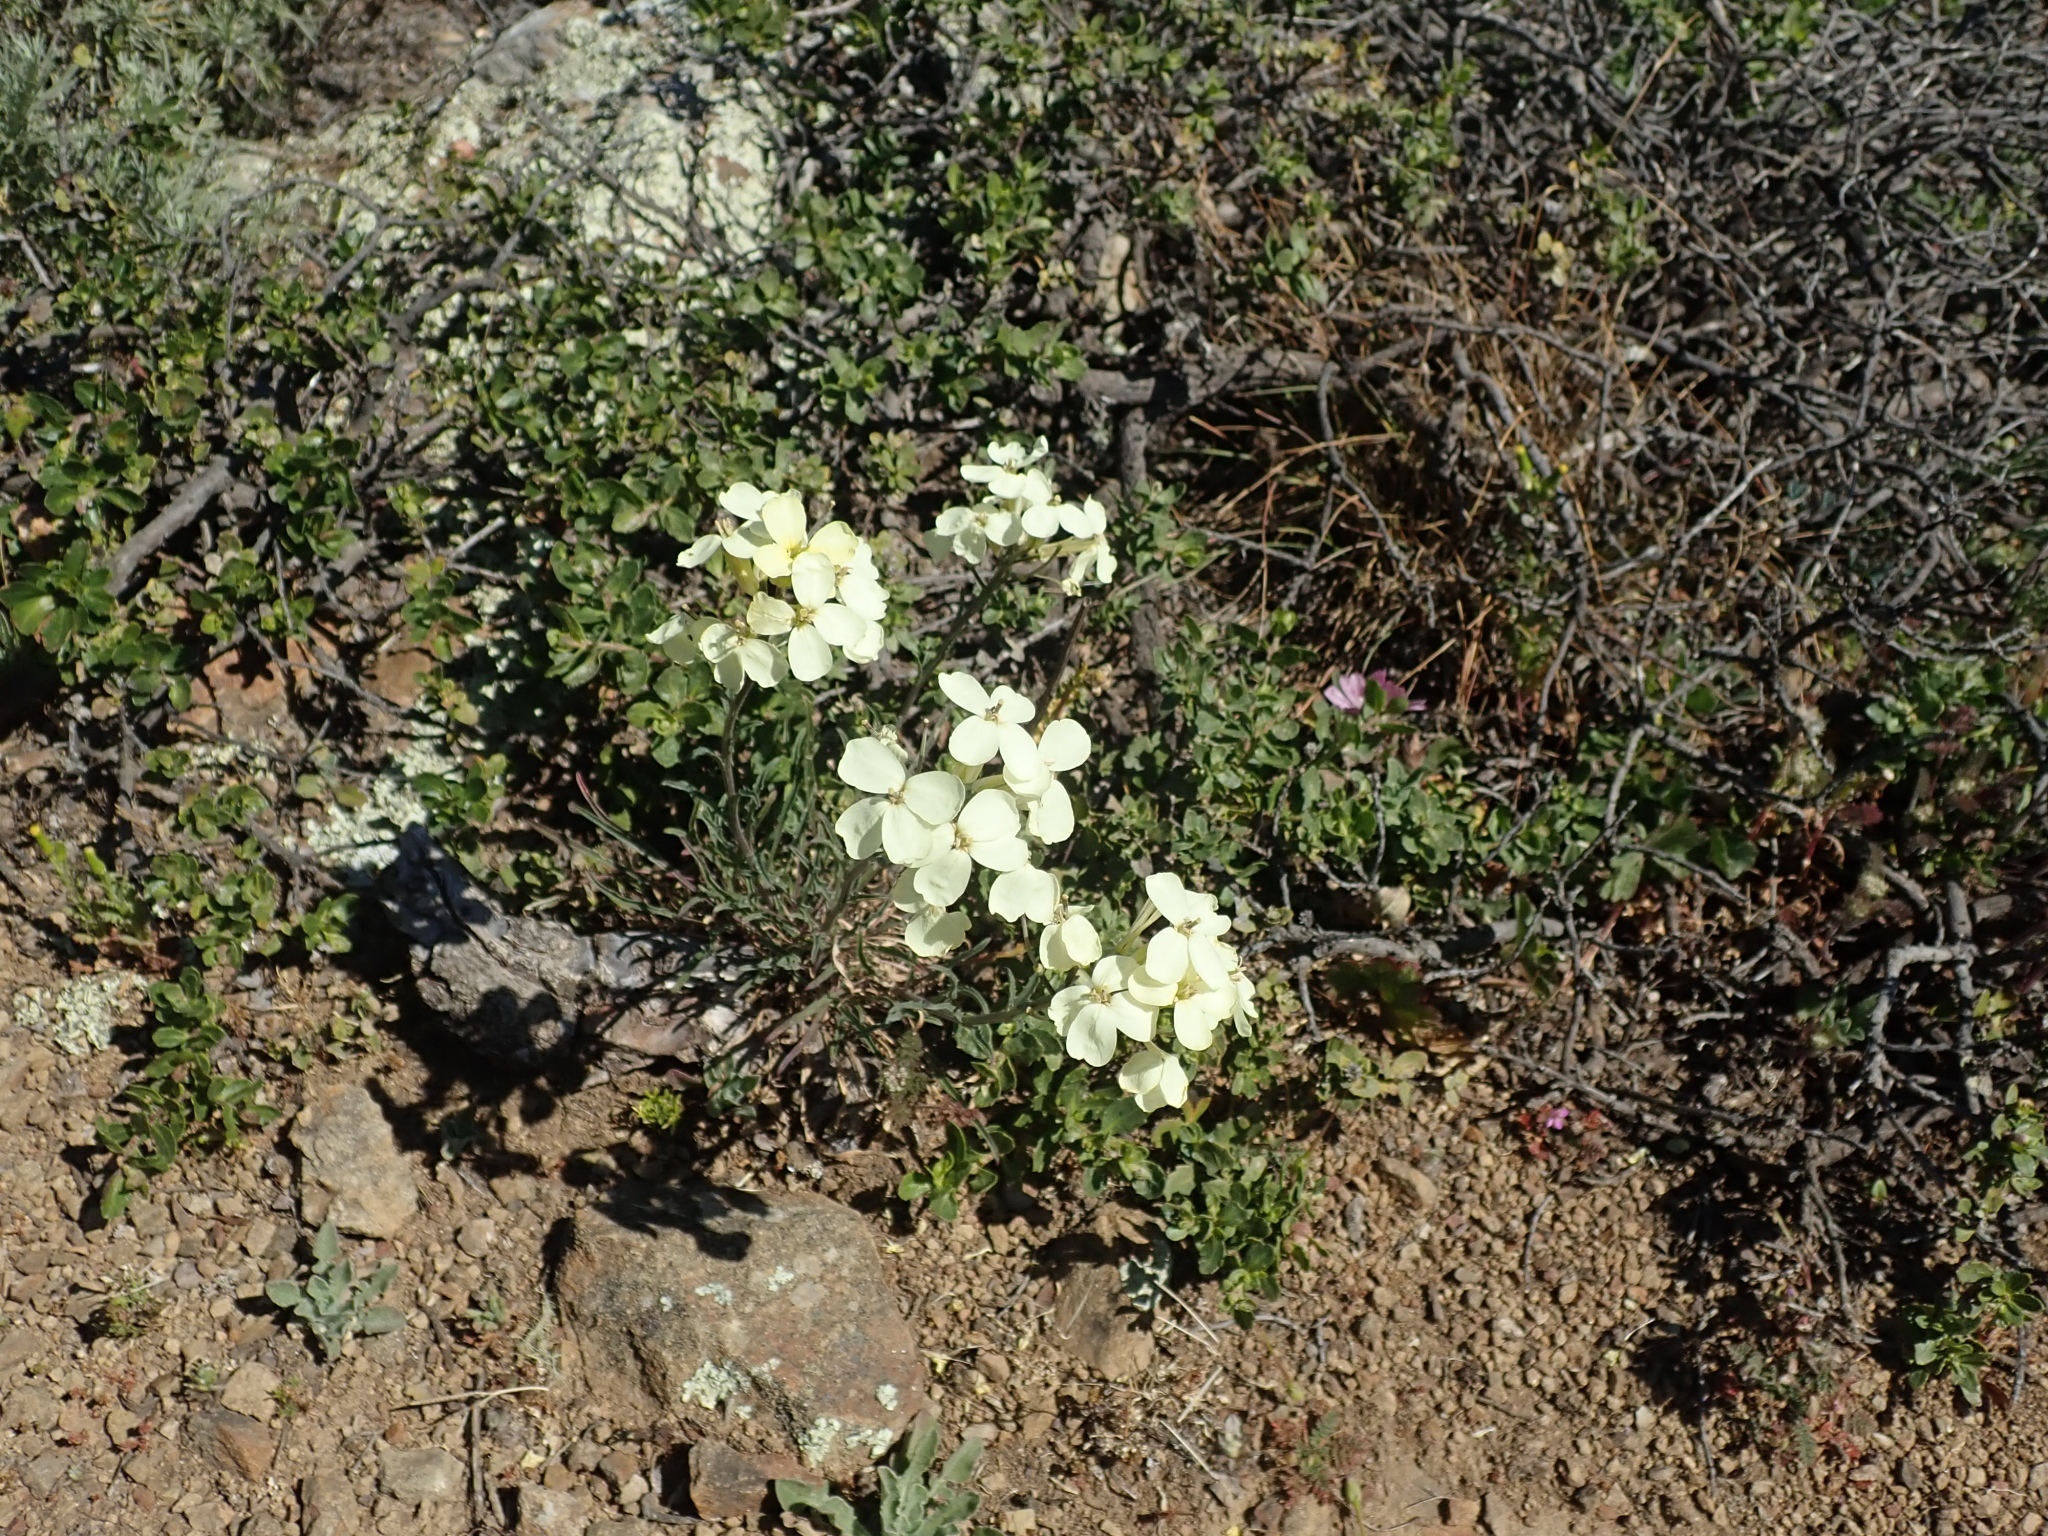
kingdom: Plantae
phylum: Tracheophyta
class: Magnoliopsida
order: Brassicales
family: Brassicaceae
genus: Erysimum
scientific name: Erysimum franciscanum
